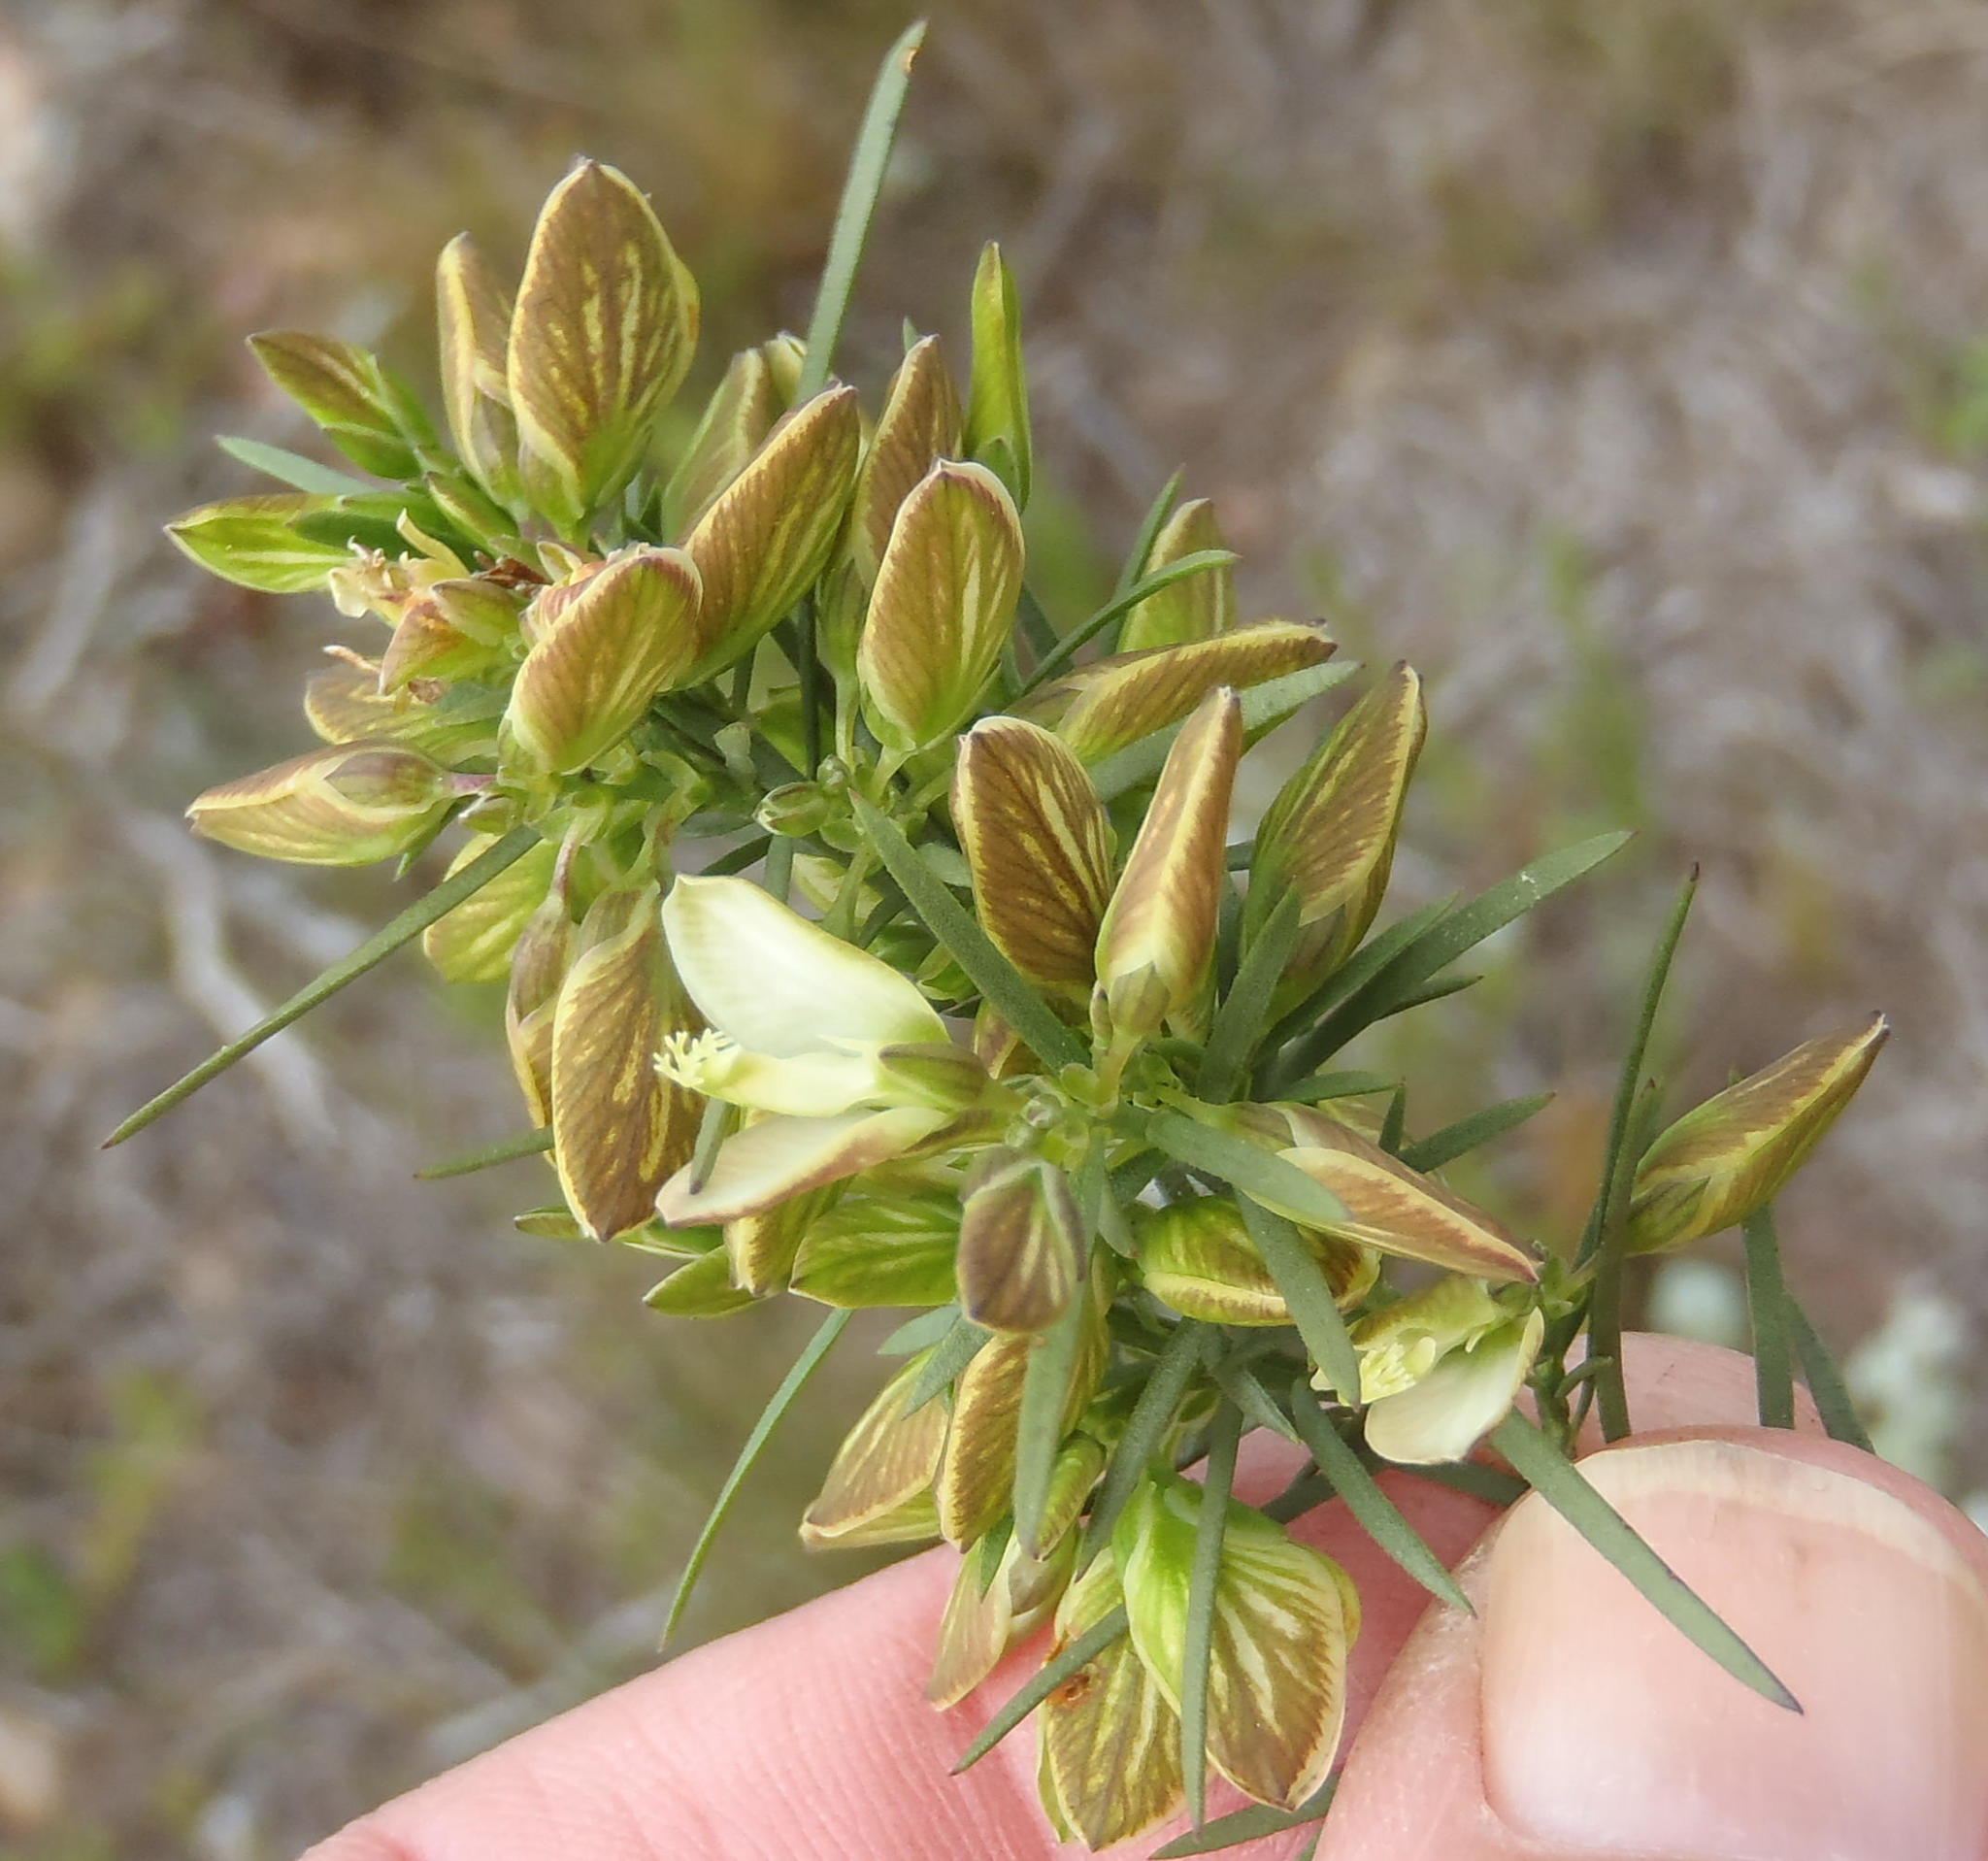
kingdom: Plantae
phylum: Tracheophyta
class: Magnoliopsida
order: Fabales
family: Polygalaceae
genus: Polygala
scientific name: Polygala ericifolia
